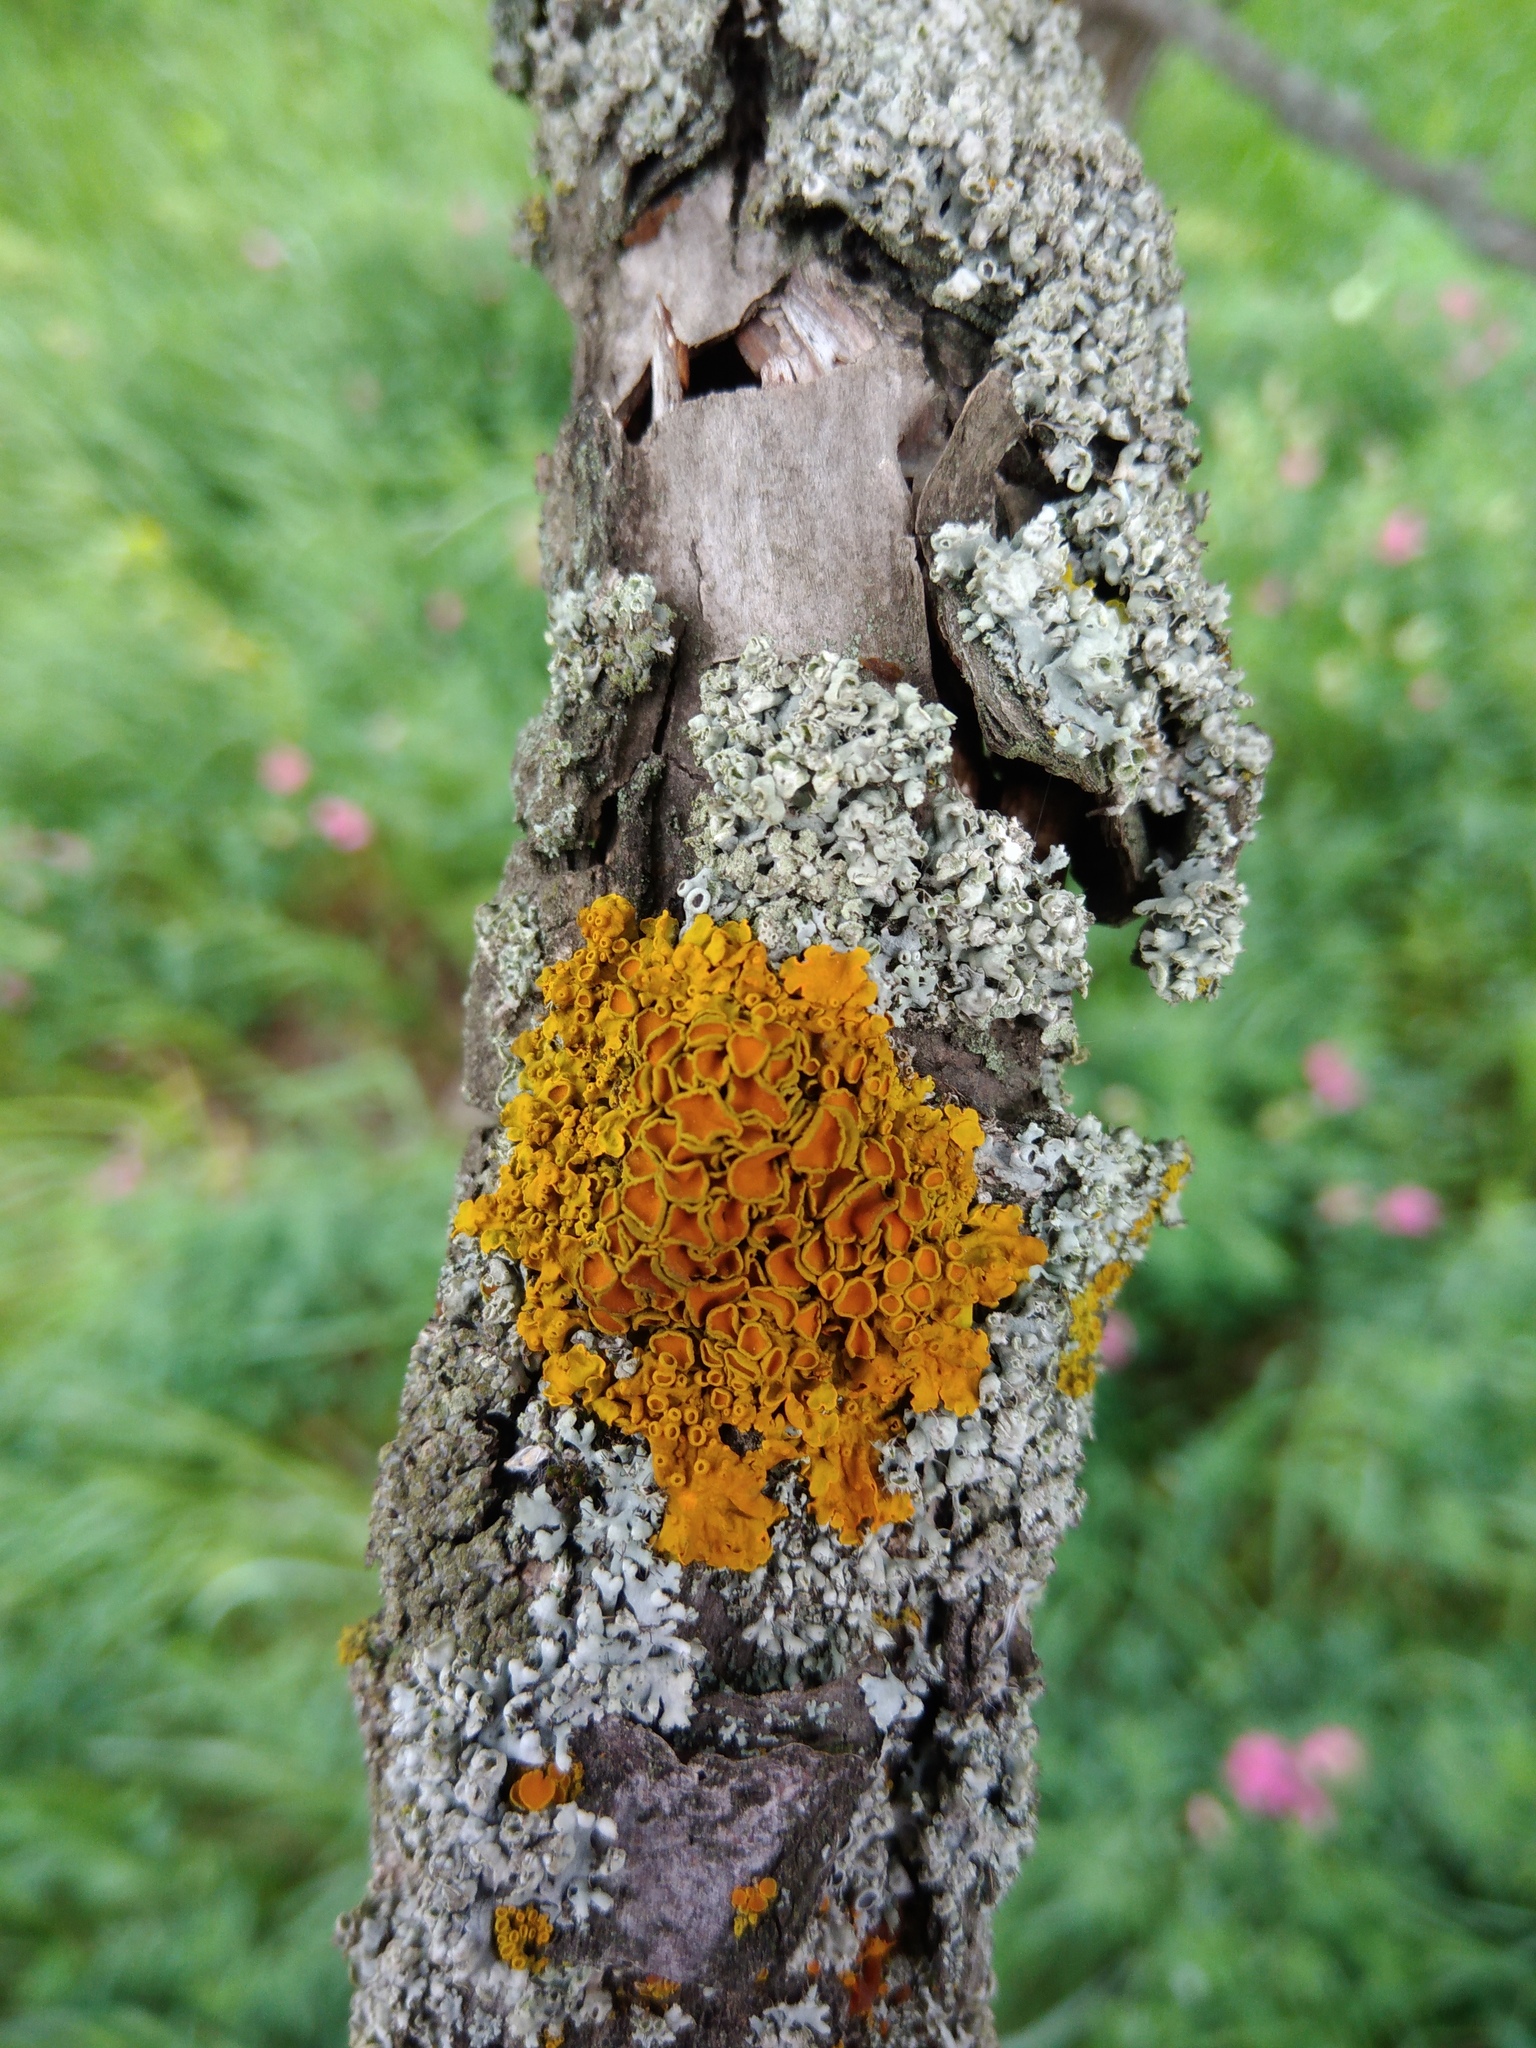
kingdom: Fungi
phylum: Ascomycota
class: Lecanoromycetes
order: Teloschistales
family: Teloschistaceae
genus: Xanthoria
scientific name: Xanthoria parietina
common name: Common orange lichen
